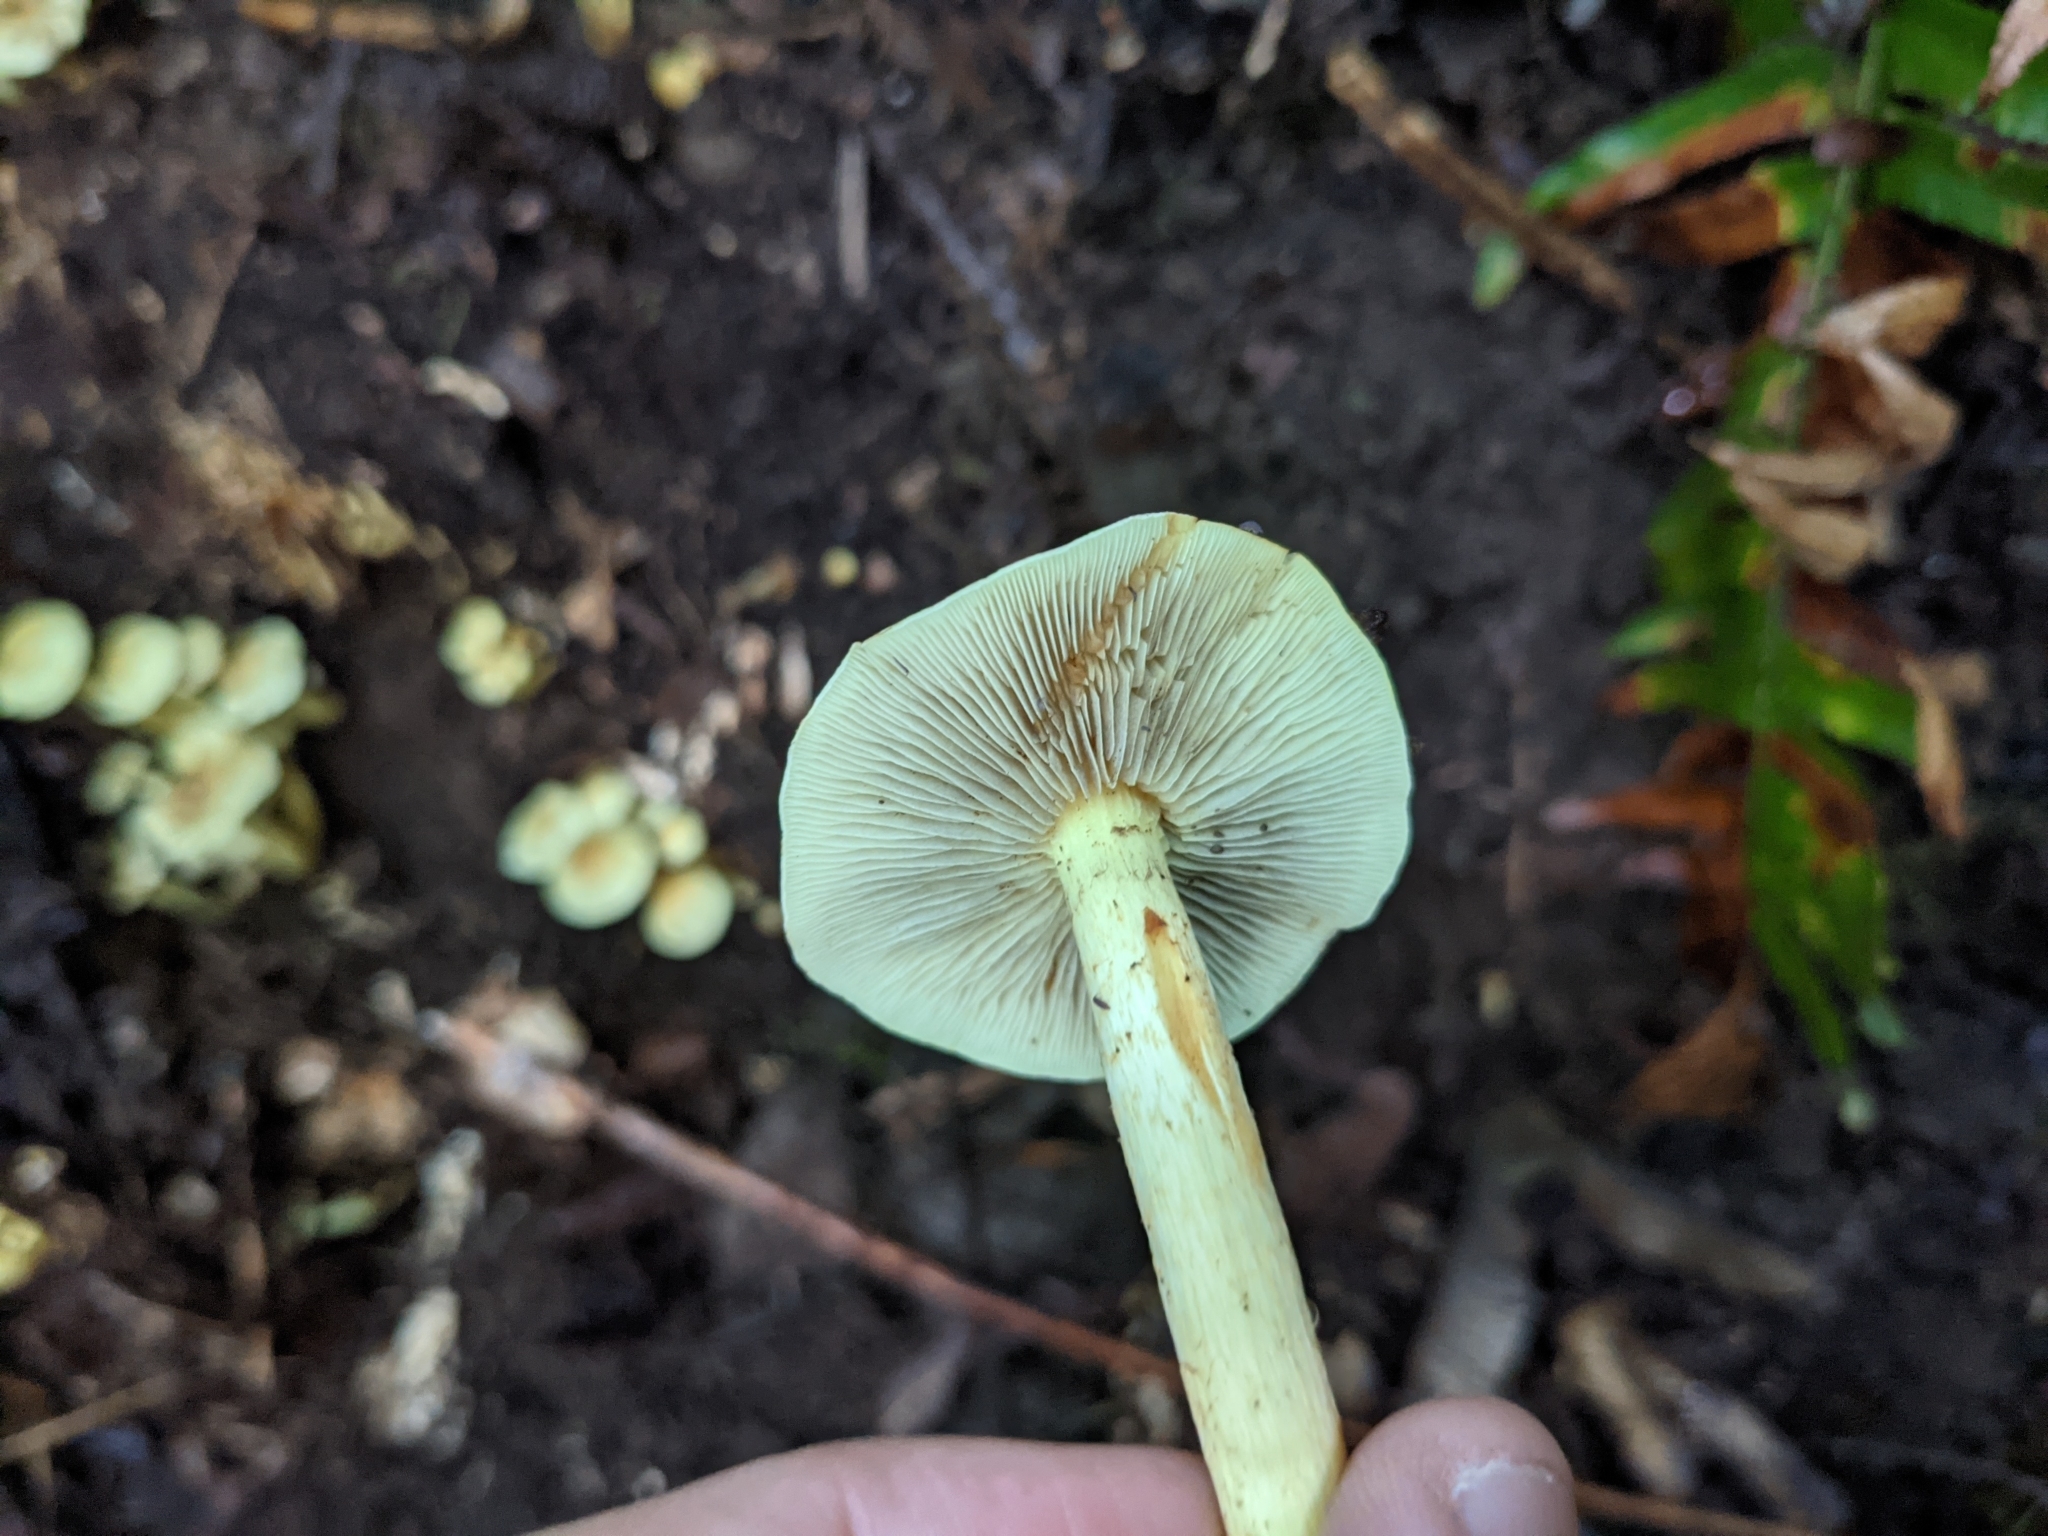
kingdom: Fungi
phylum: Basidiomycota
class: Agaricomycetes
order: Agaricales
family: Strophariaceae
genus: Hypholoma
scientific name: Hypholoma fasciculare
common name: Sulphur tuft
